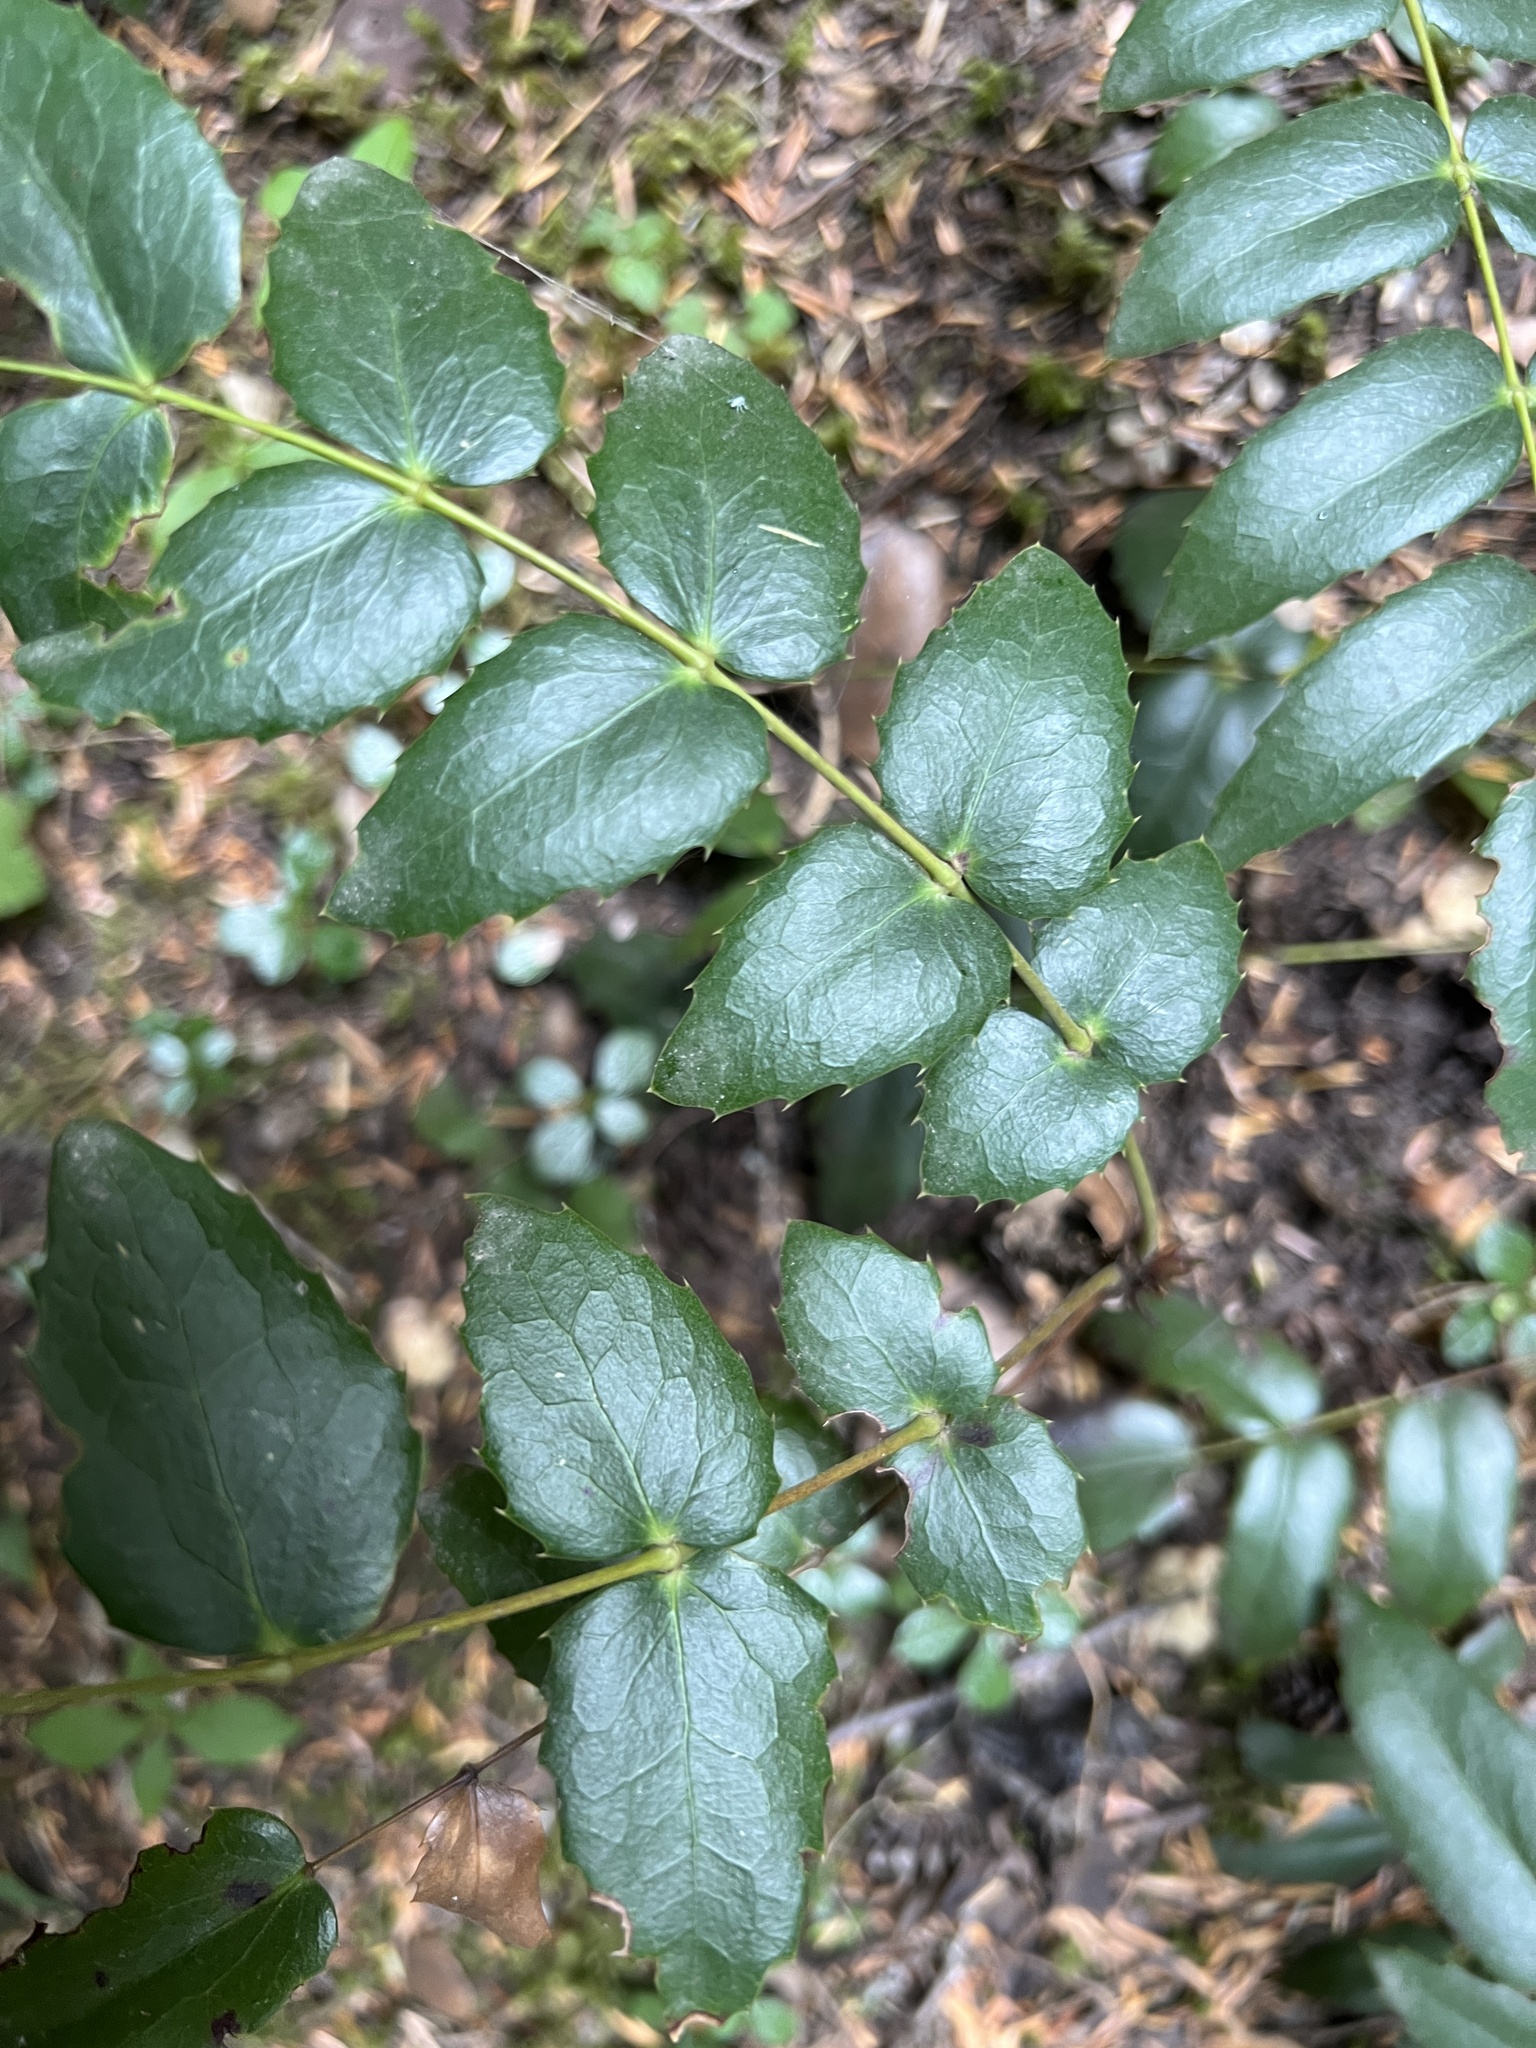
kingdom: Plantae
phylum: Tracheophyta
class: Magnoliopsida
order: Ranunculales
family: Berberidaceae
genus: Mahonia
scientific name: Mahonia nervosa
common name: Cascade oregon-grape
